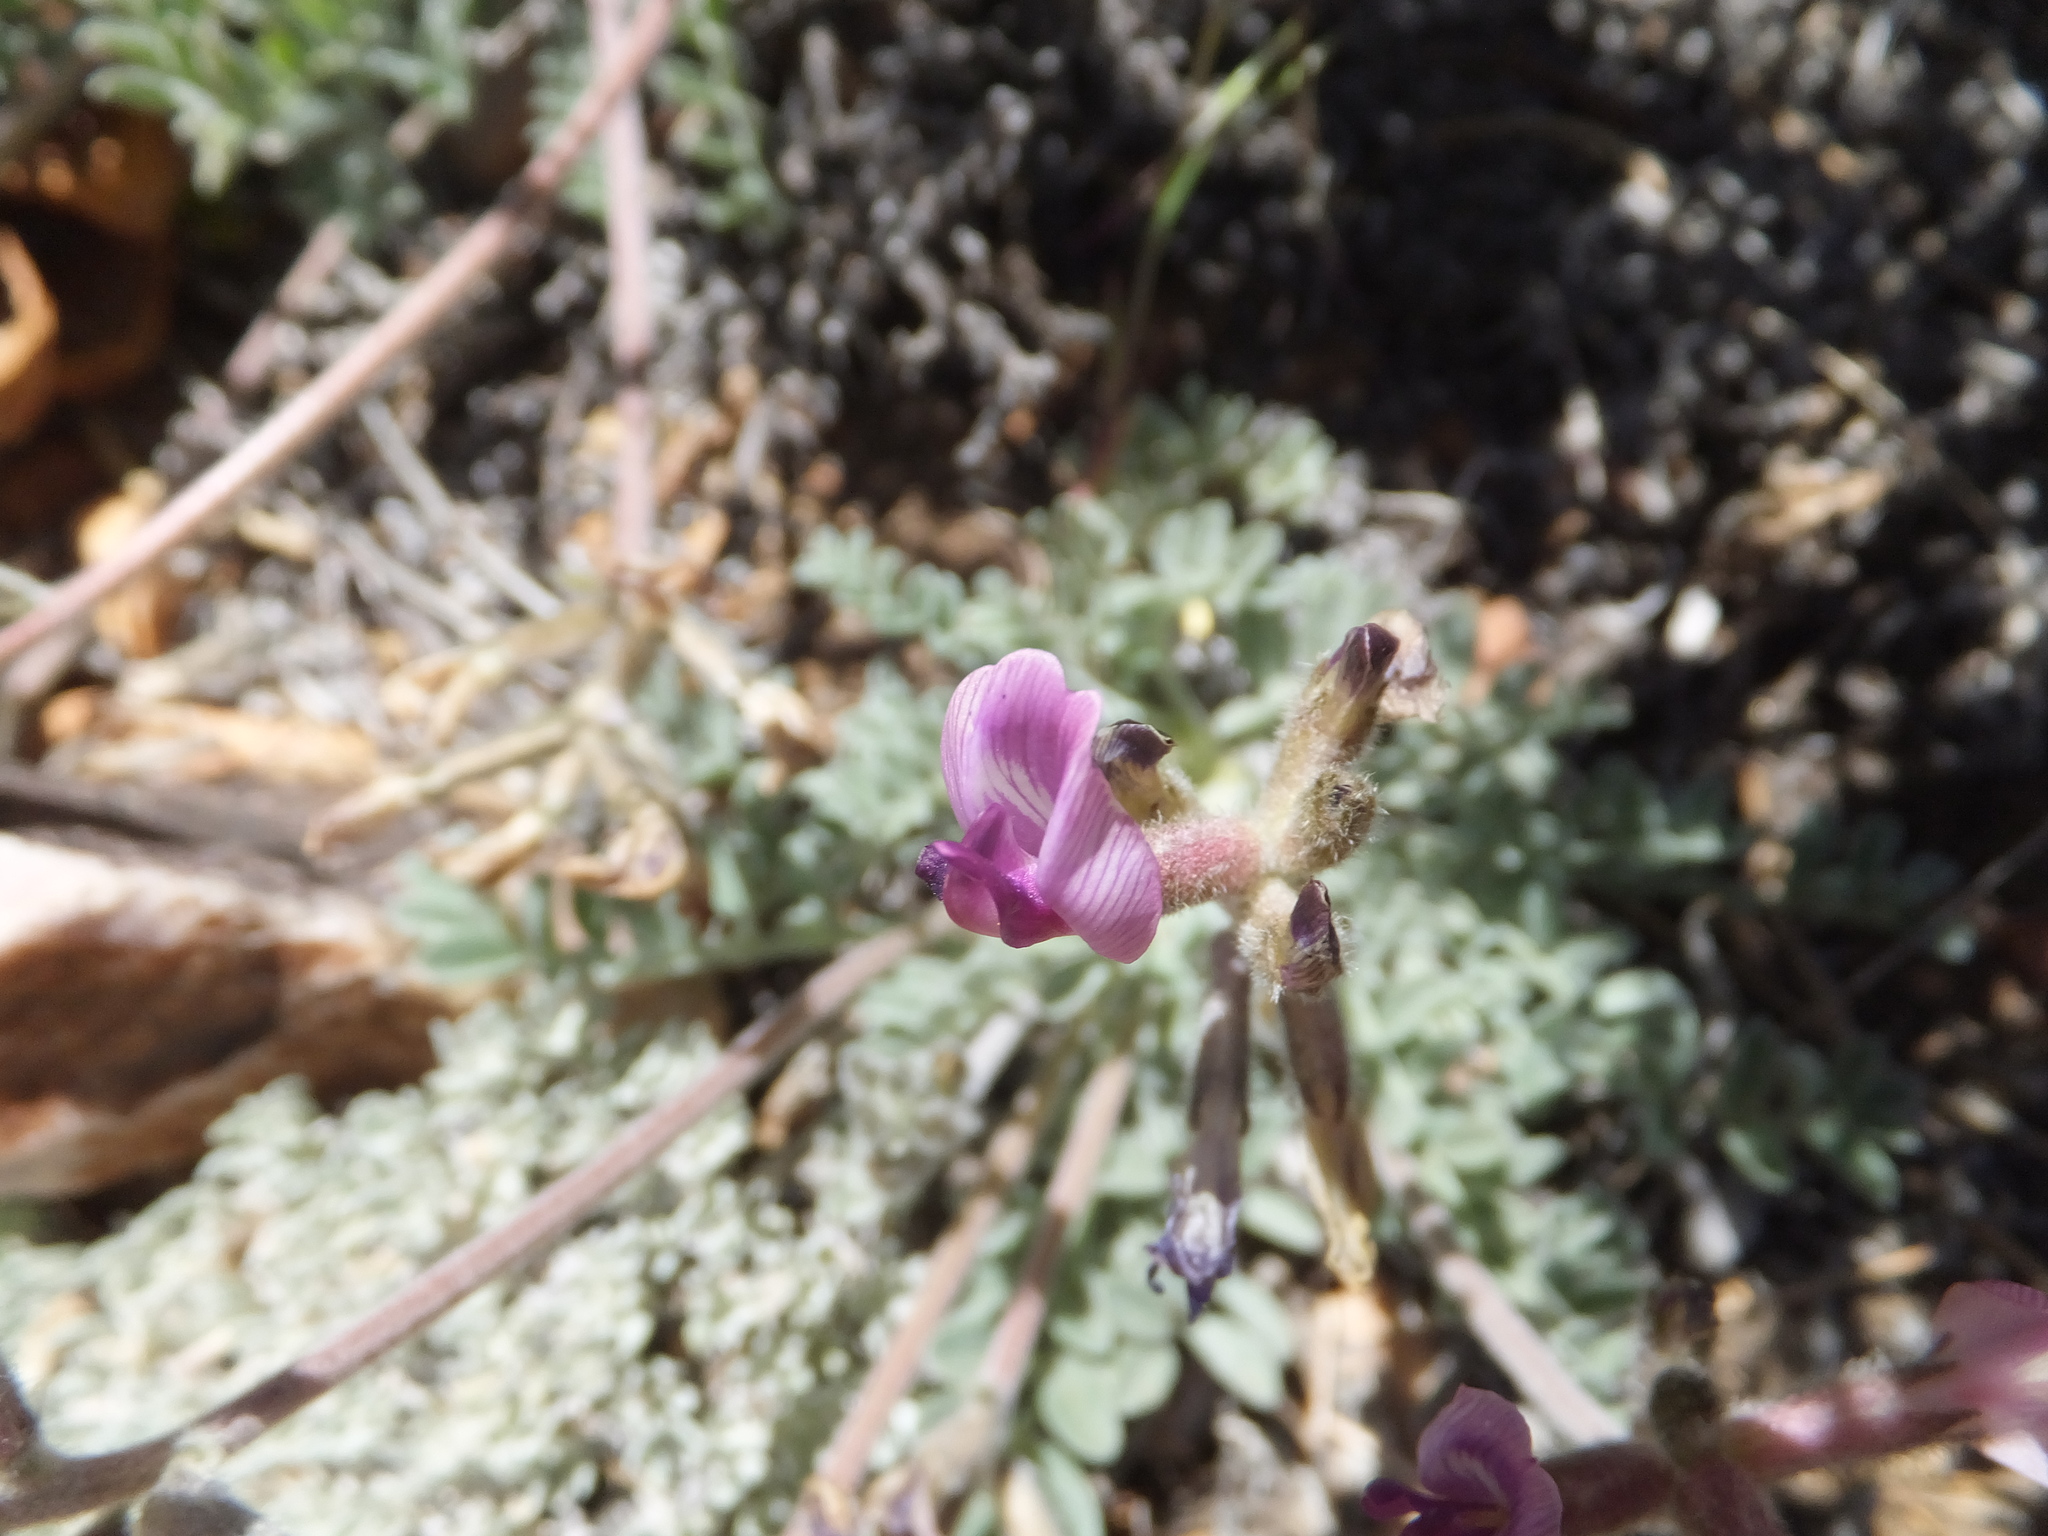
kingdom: Plantae
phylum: Tracheophyta
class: Magnoliopsida
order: Fabales
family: Fabaceae
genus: Astragalus
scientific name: Astragalus leucolobus
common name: Big bear valley woollypod
